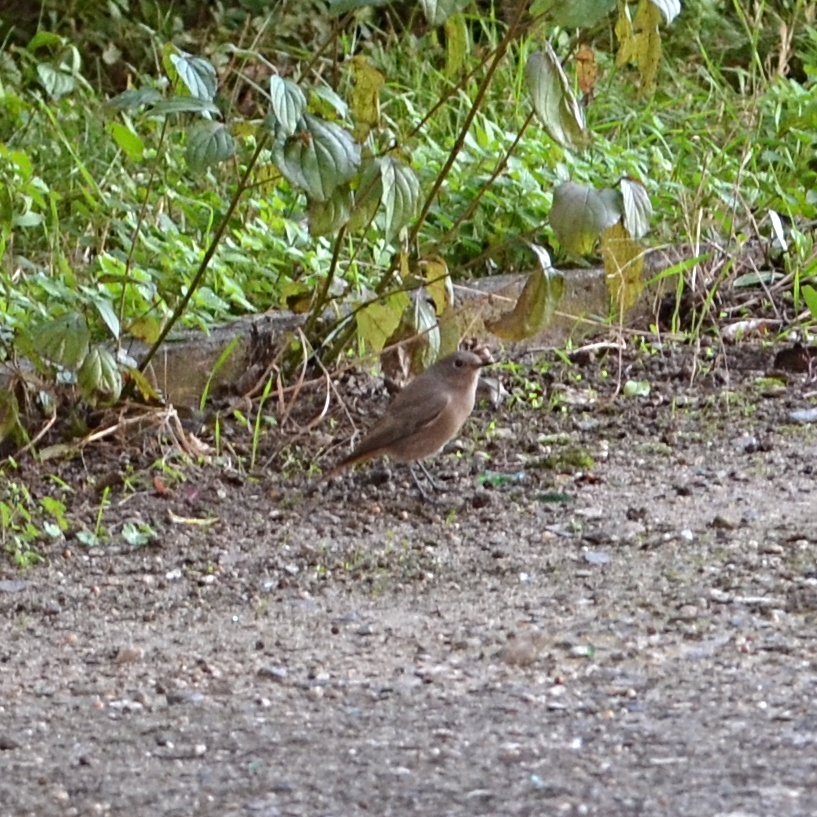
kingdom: Animalia
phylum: Chordata
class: Aves
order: Passeriformes
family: Muscicapidae
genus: Phoenicurus
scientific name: Phoenicurus ochruros
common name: Black redstart
